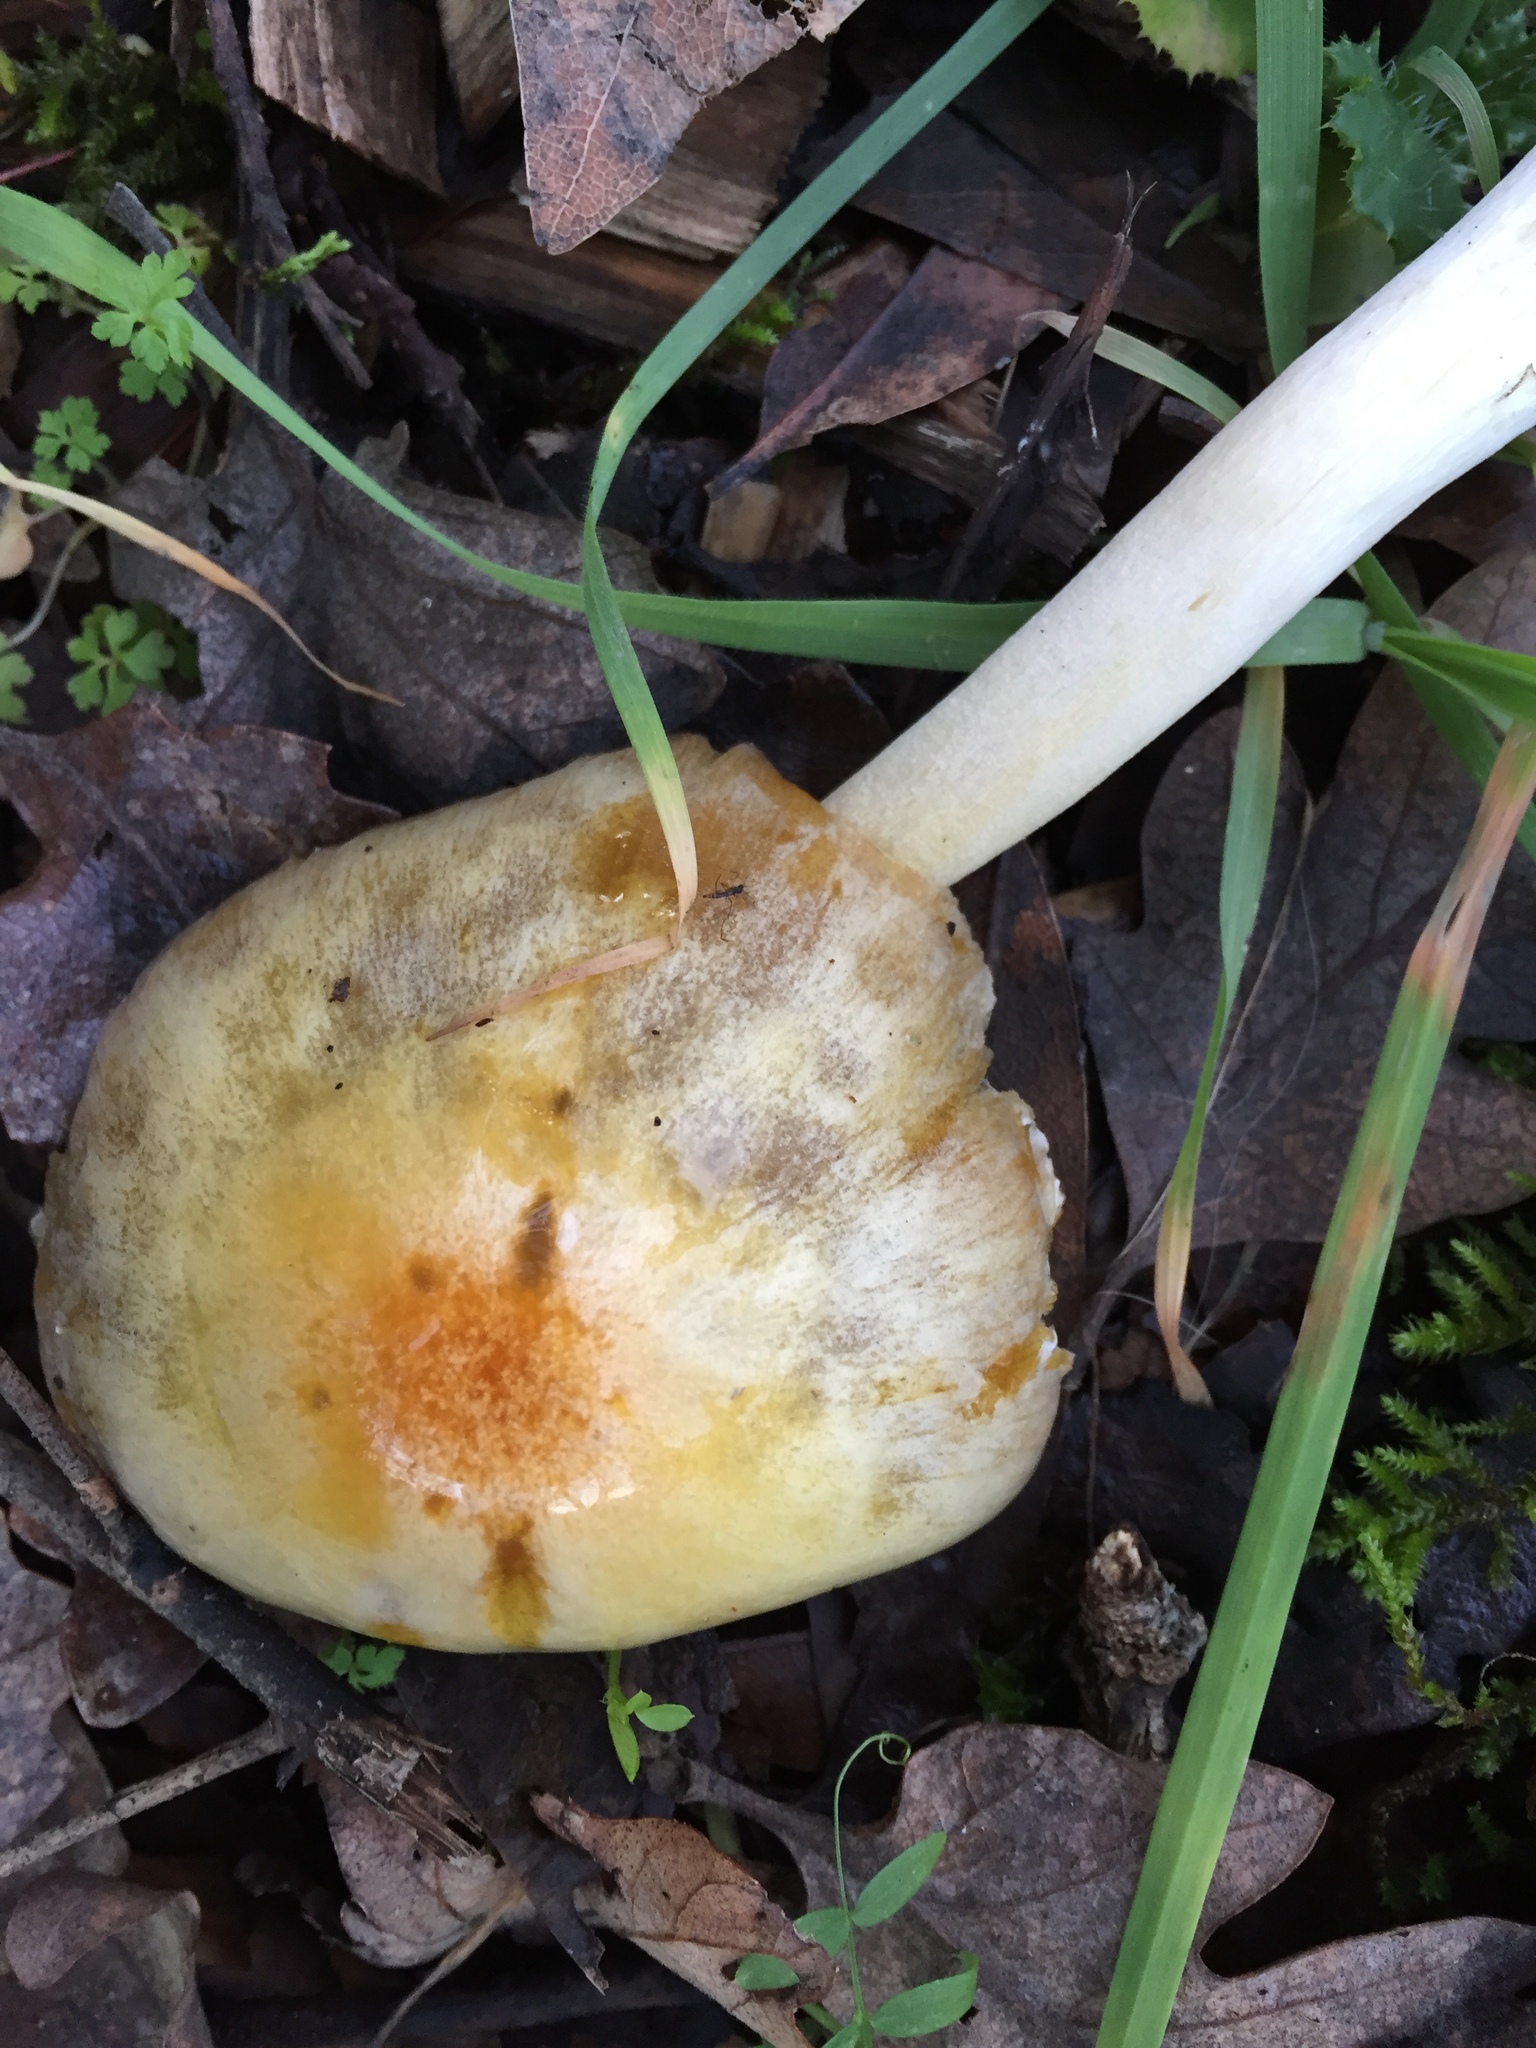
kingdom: Fungi
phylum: Basidiomycota
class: Agaricomycetes
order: Agaricales
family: Bolbitiaceae
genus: Bolbitius
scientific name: Bolbitius titubans
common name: Yellow fieldcap
